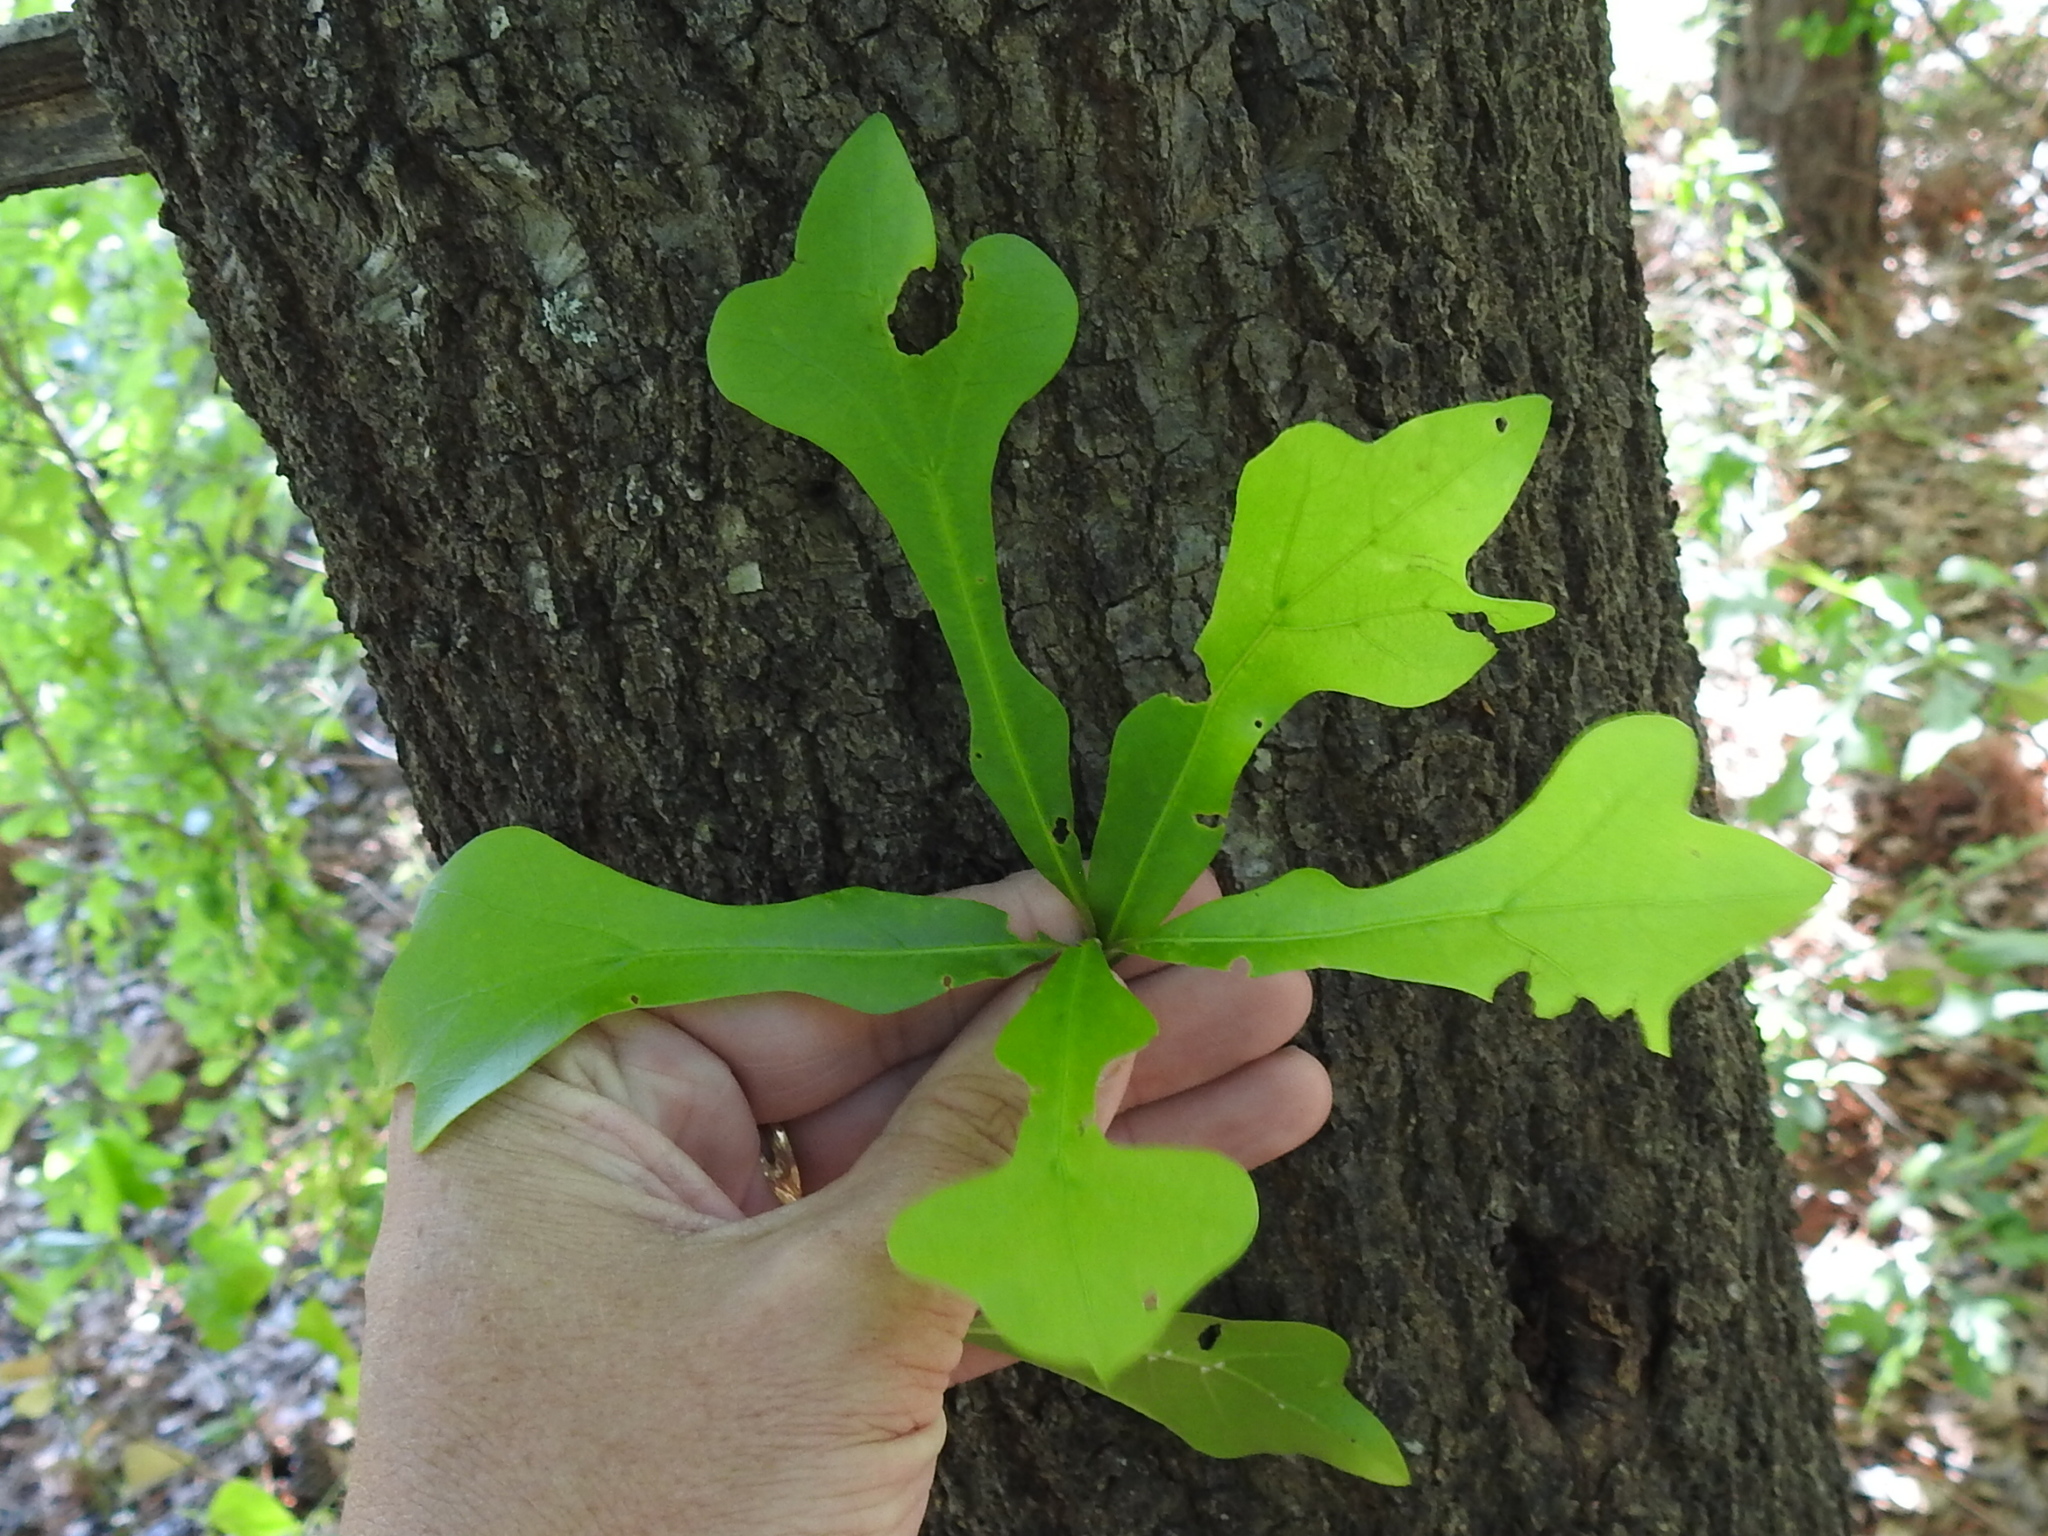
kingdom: Plantae
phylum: Tracheophyta
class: Magnoliopsida
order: Fagales
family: Fagaceae
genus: Quercus
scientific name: Quercus nigra
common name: Water oak
